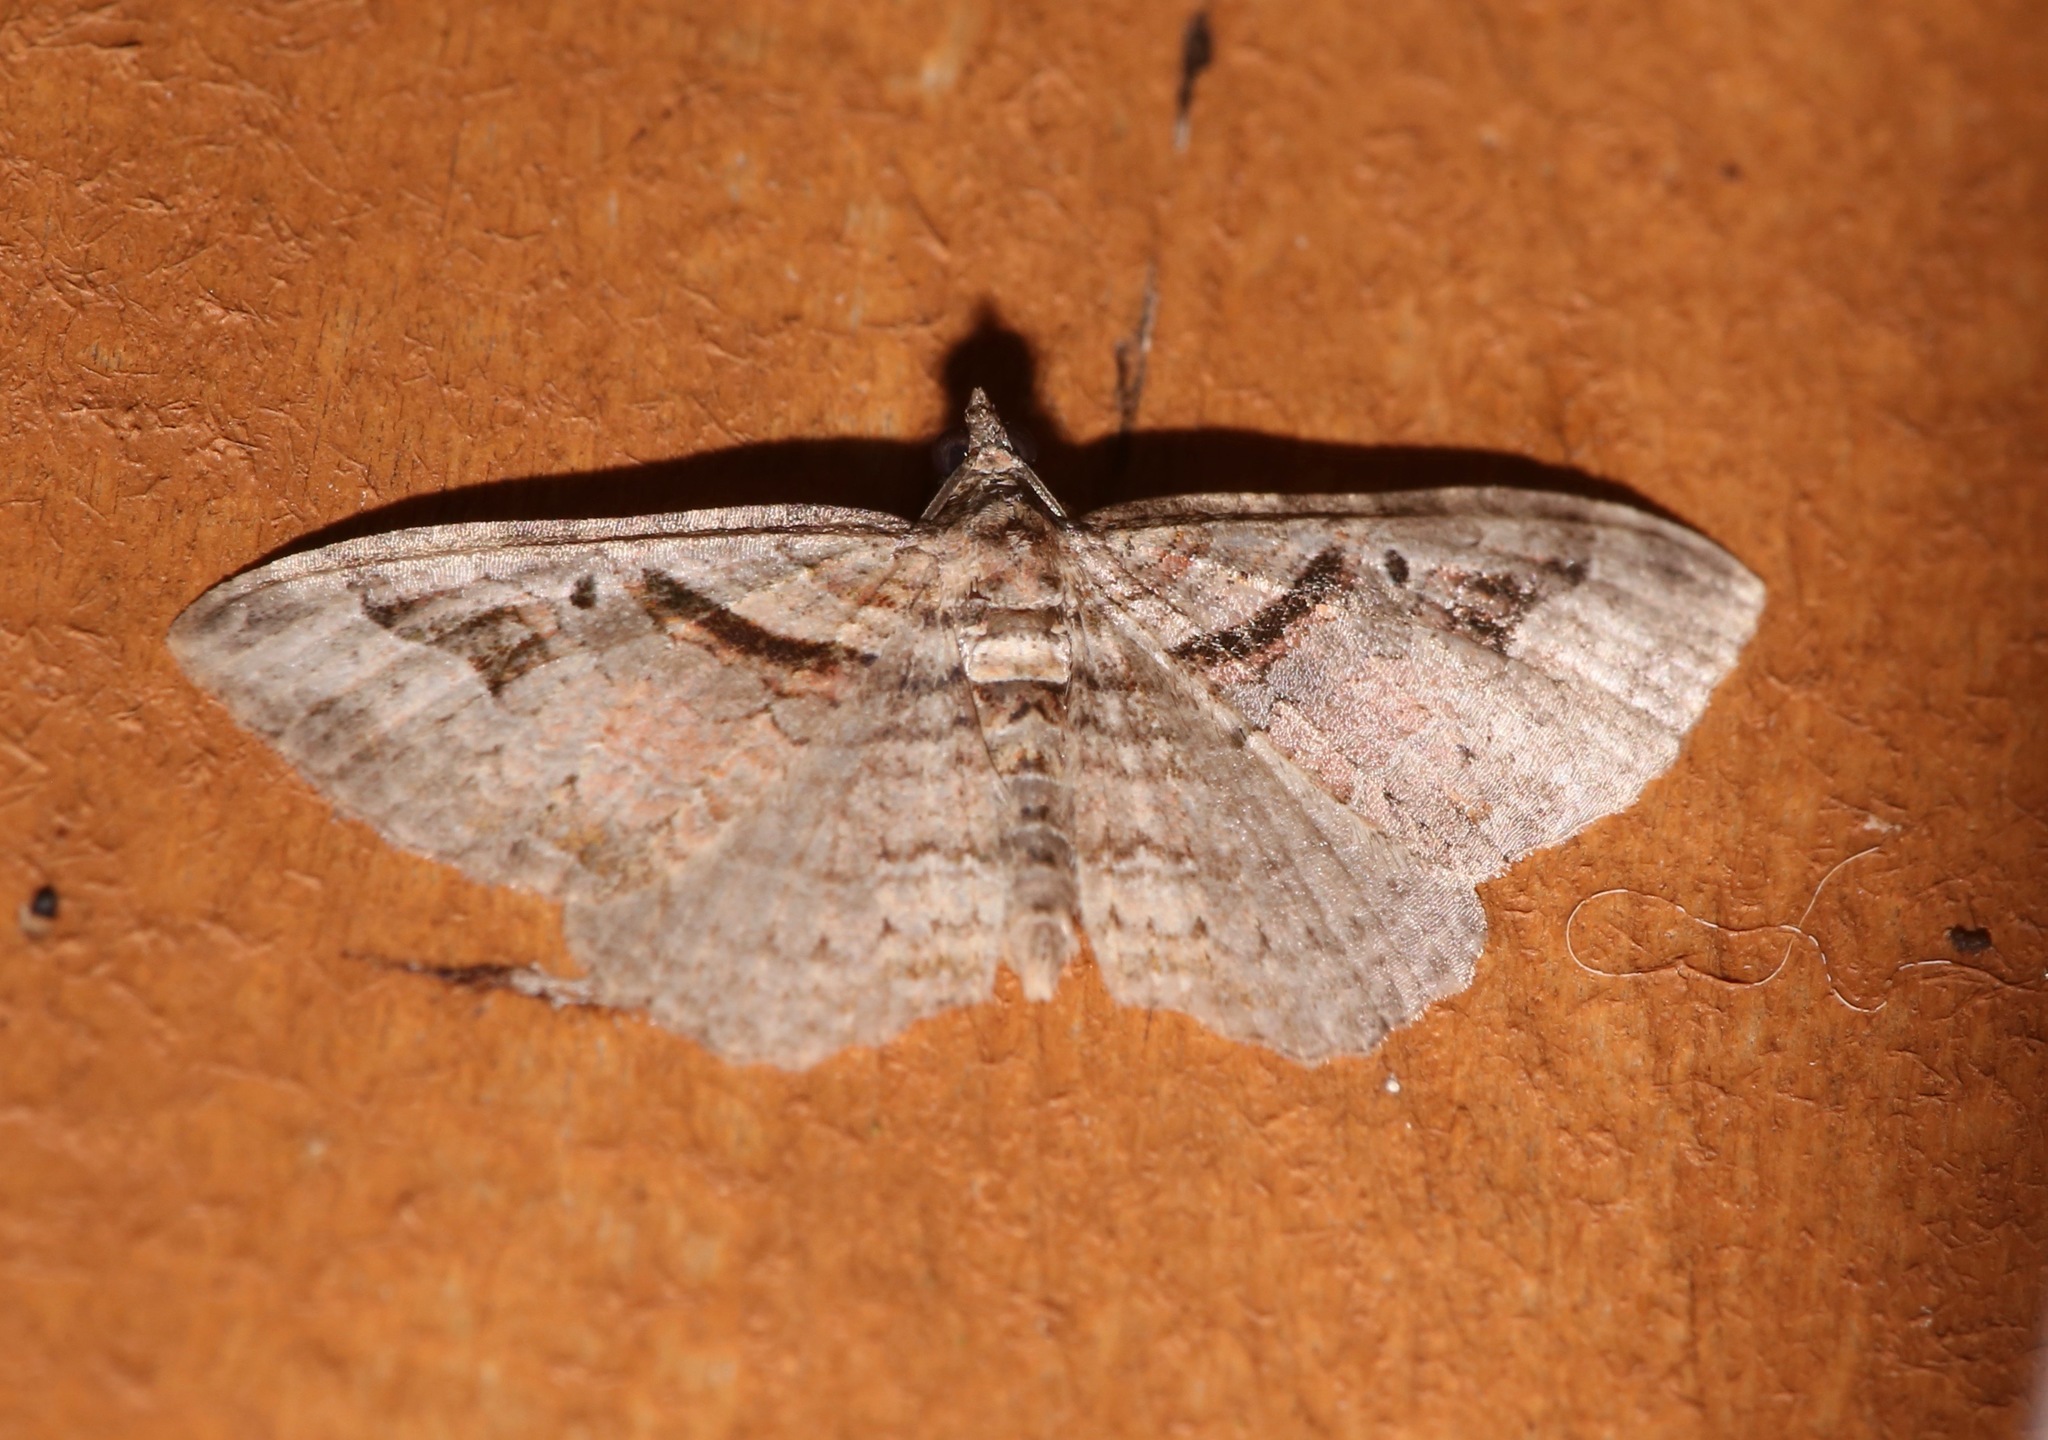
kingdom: Animalia
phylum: Arthropoda
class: Insecta
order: Lepidoptera
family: Geometridae
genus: Costaconvexa
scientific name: Costaconvexa centrostrigaria
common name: Bent-line carpet
